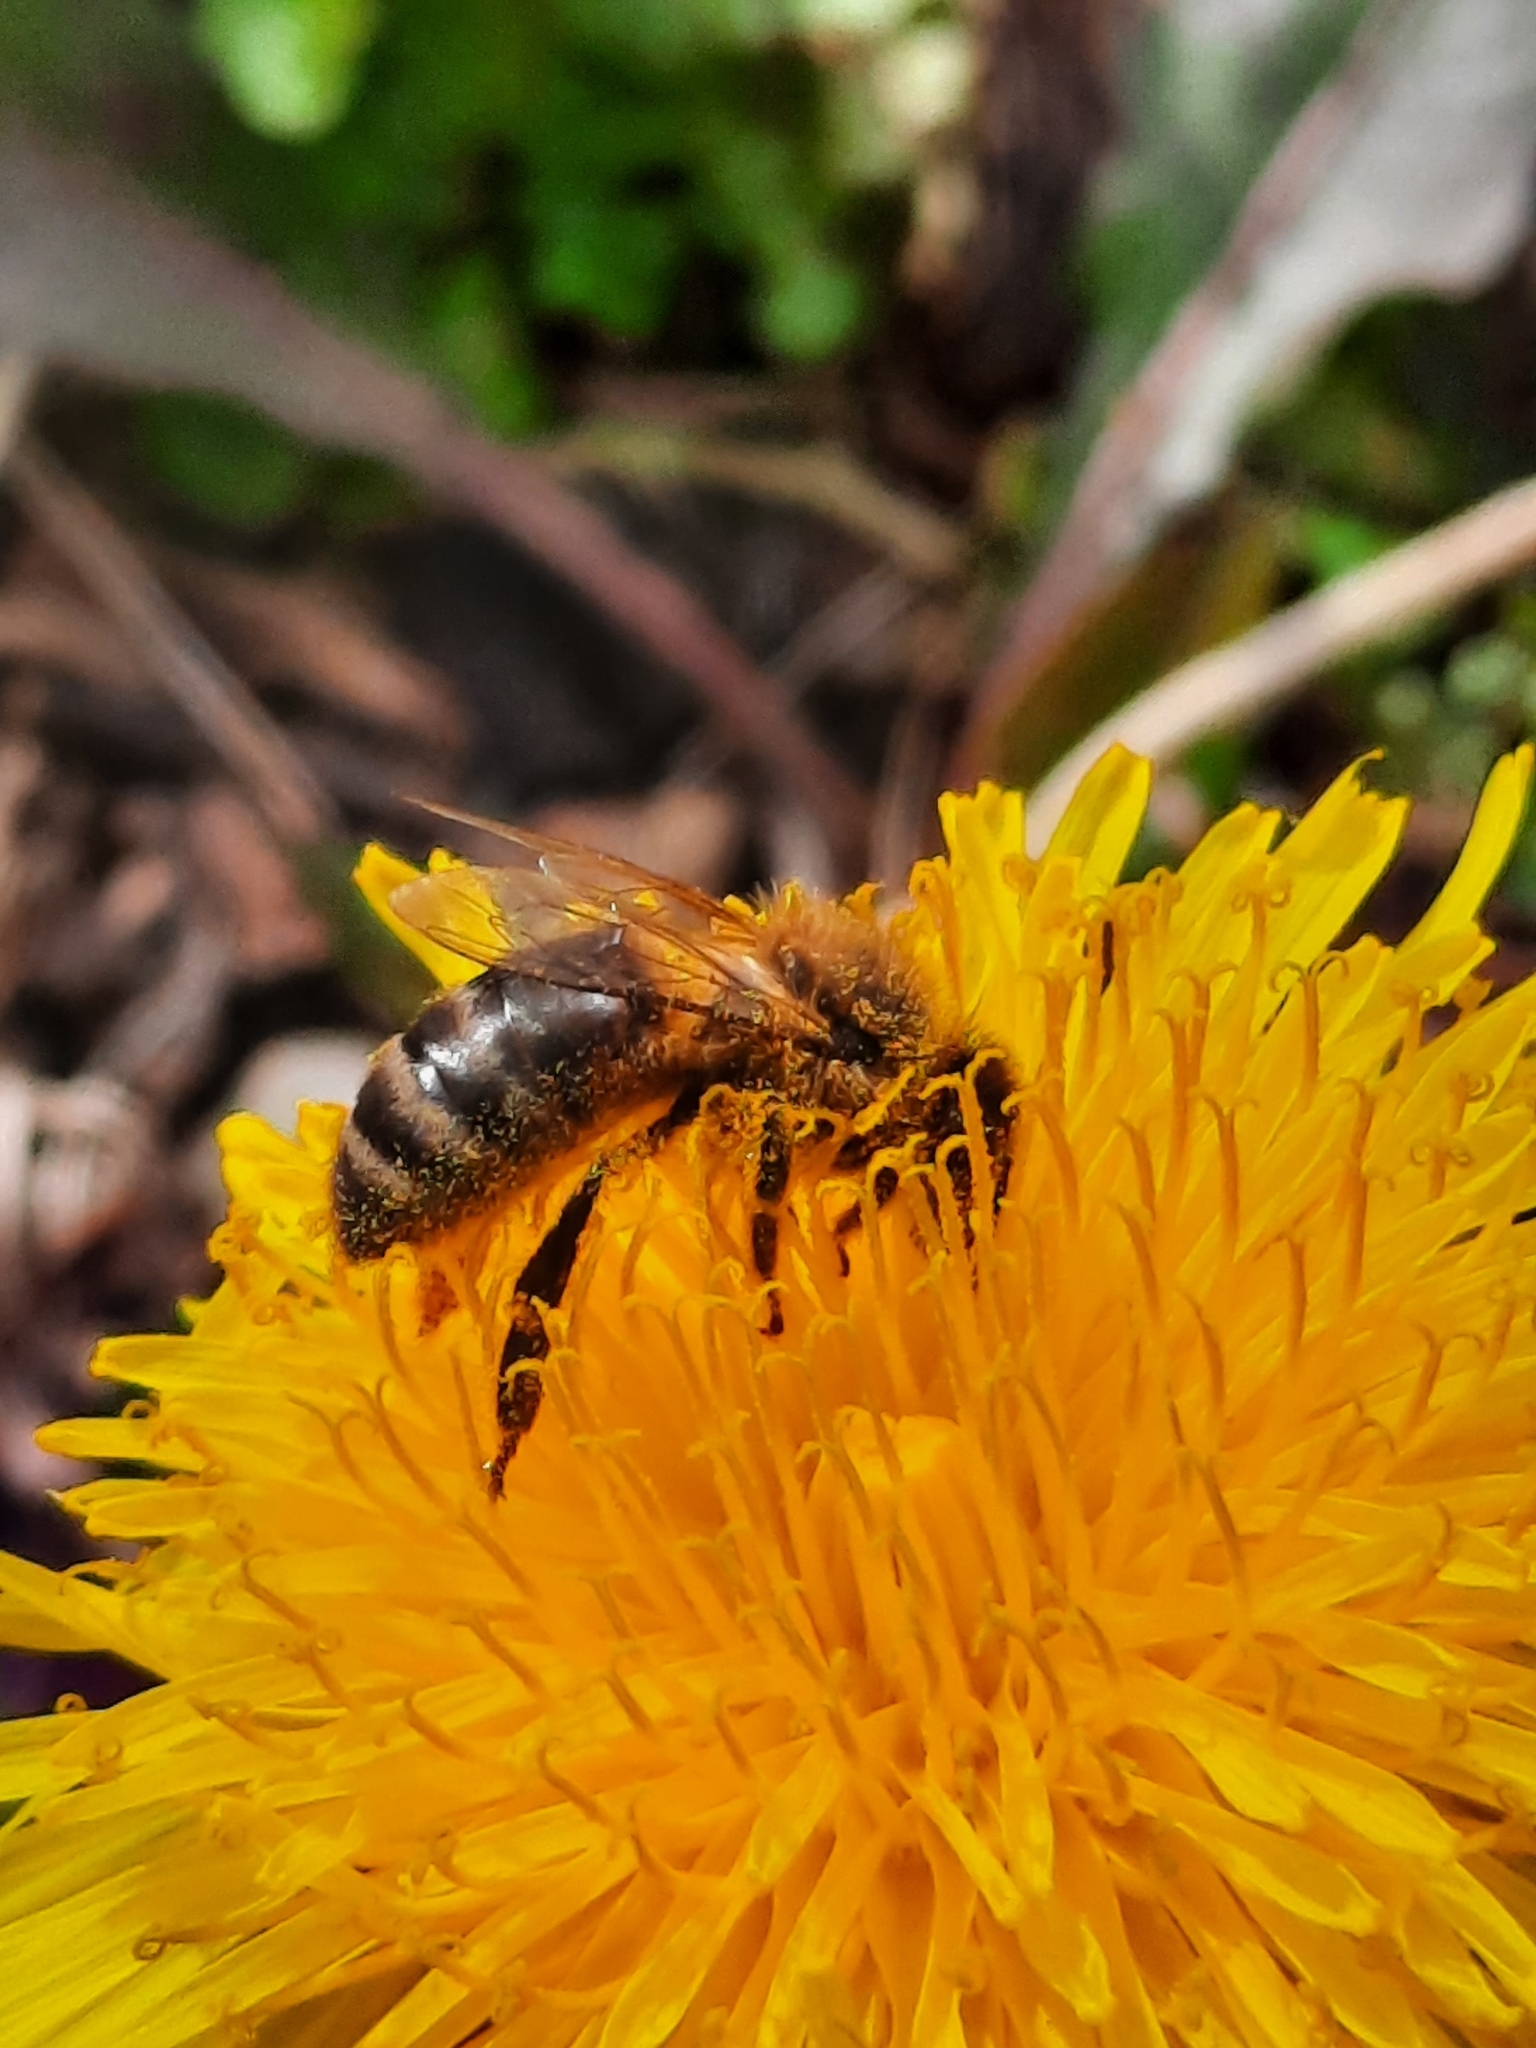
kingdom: Animalia
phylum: Arthropoda
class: Insecta
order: Hymenoptera
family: Apidae
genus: Apis
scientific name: Apis mellifera
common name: Honey bee
